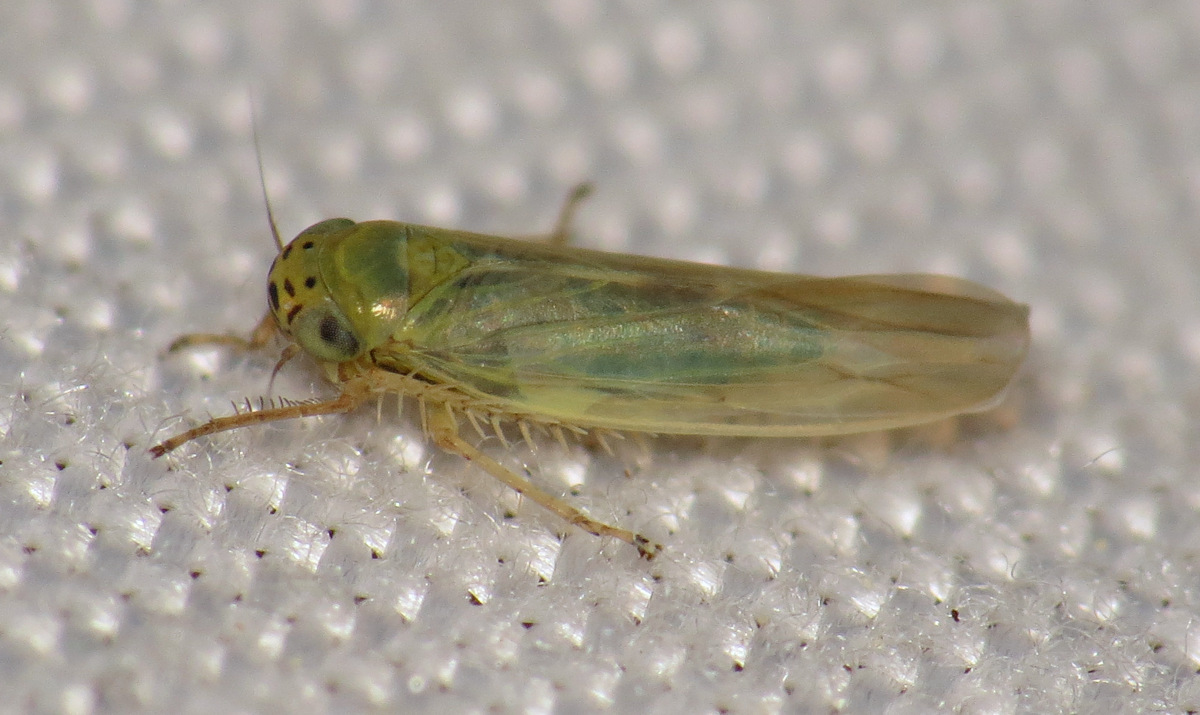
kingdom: Animalia
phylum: Arthropoda
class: Insecta
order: Hemiptera
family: Cicadellidae
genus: Macrosteles
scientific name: Macrosteles quadrilineatus
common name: Aster leafhopper
